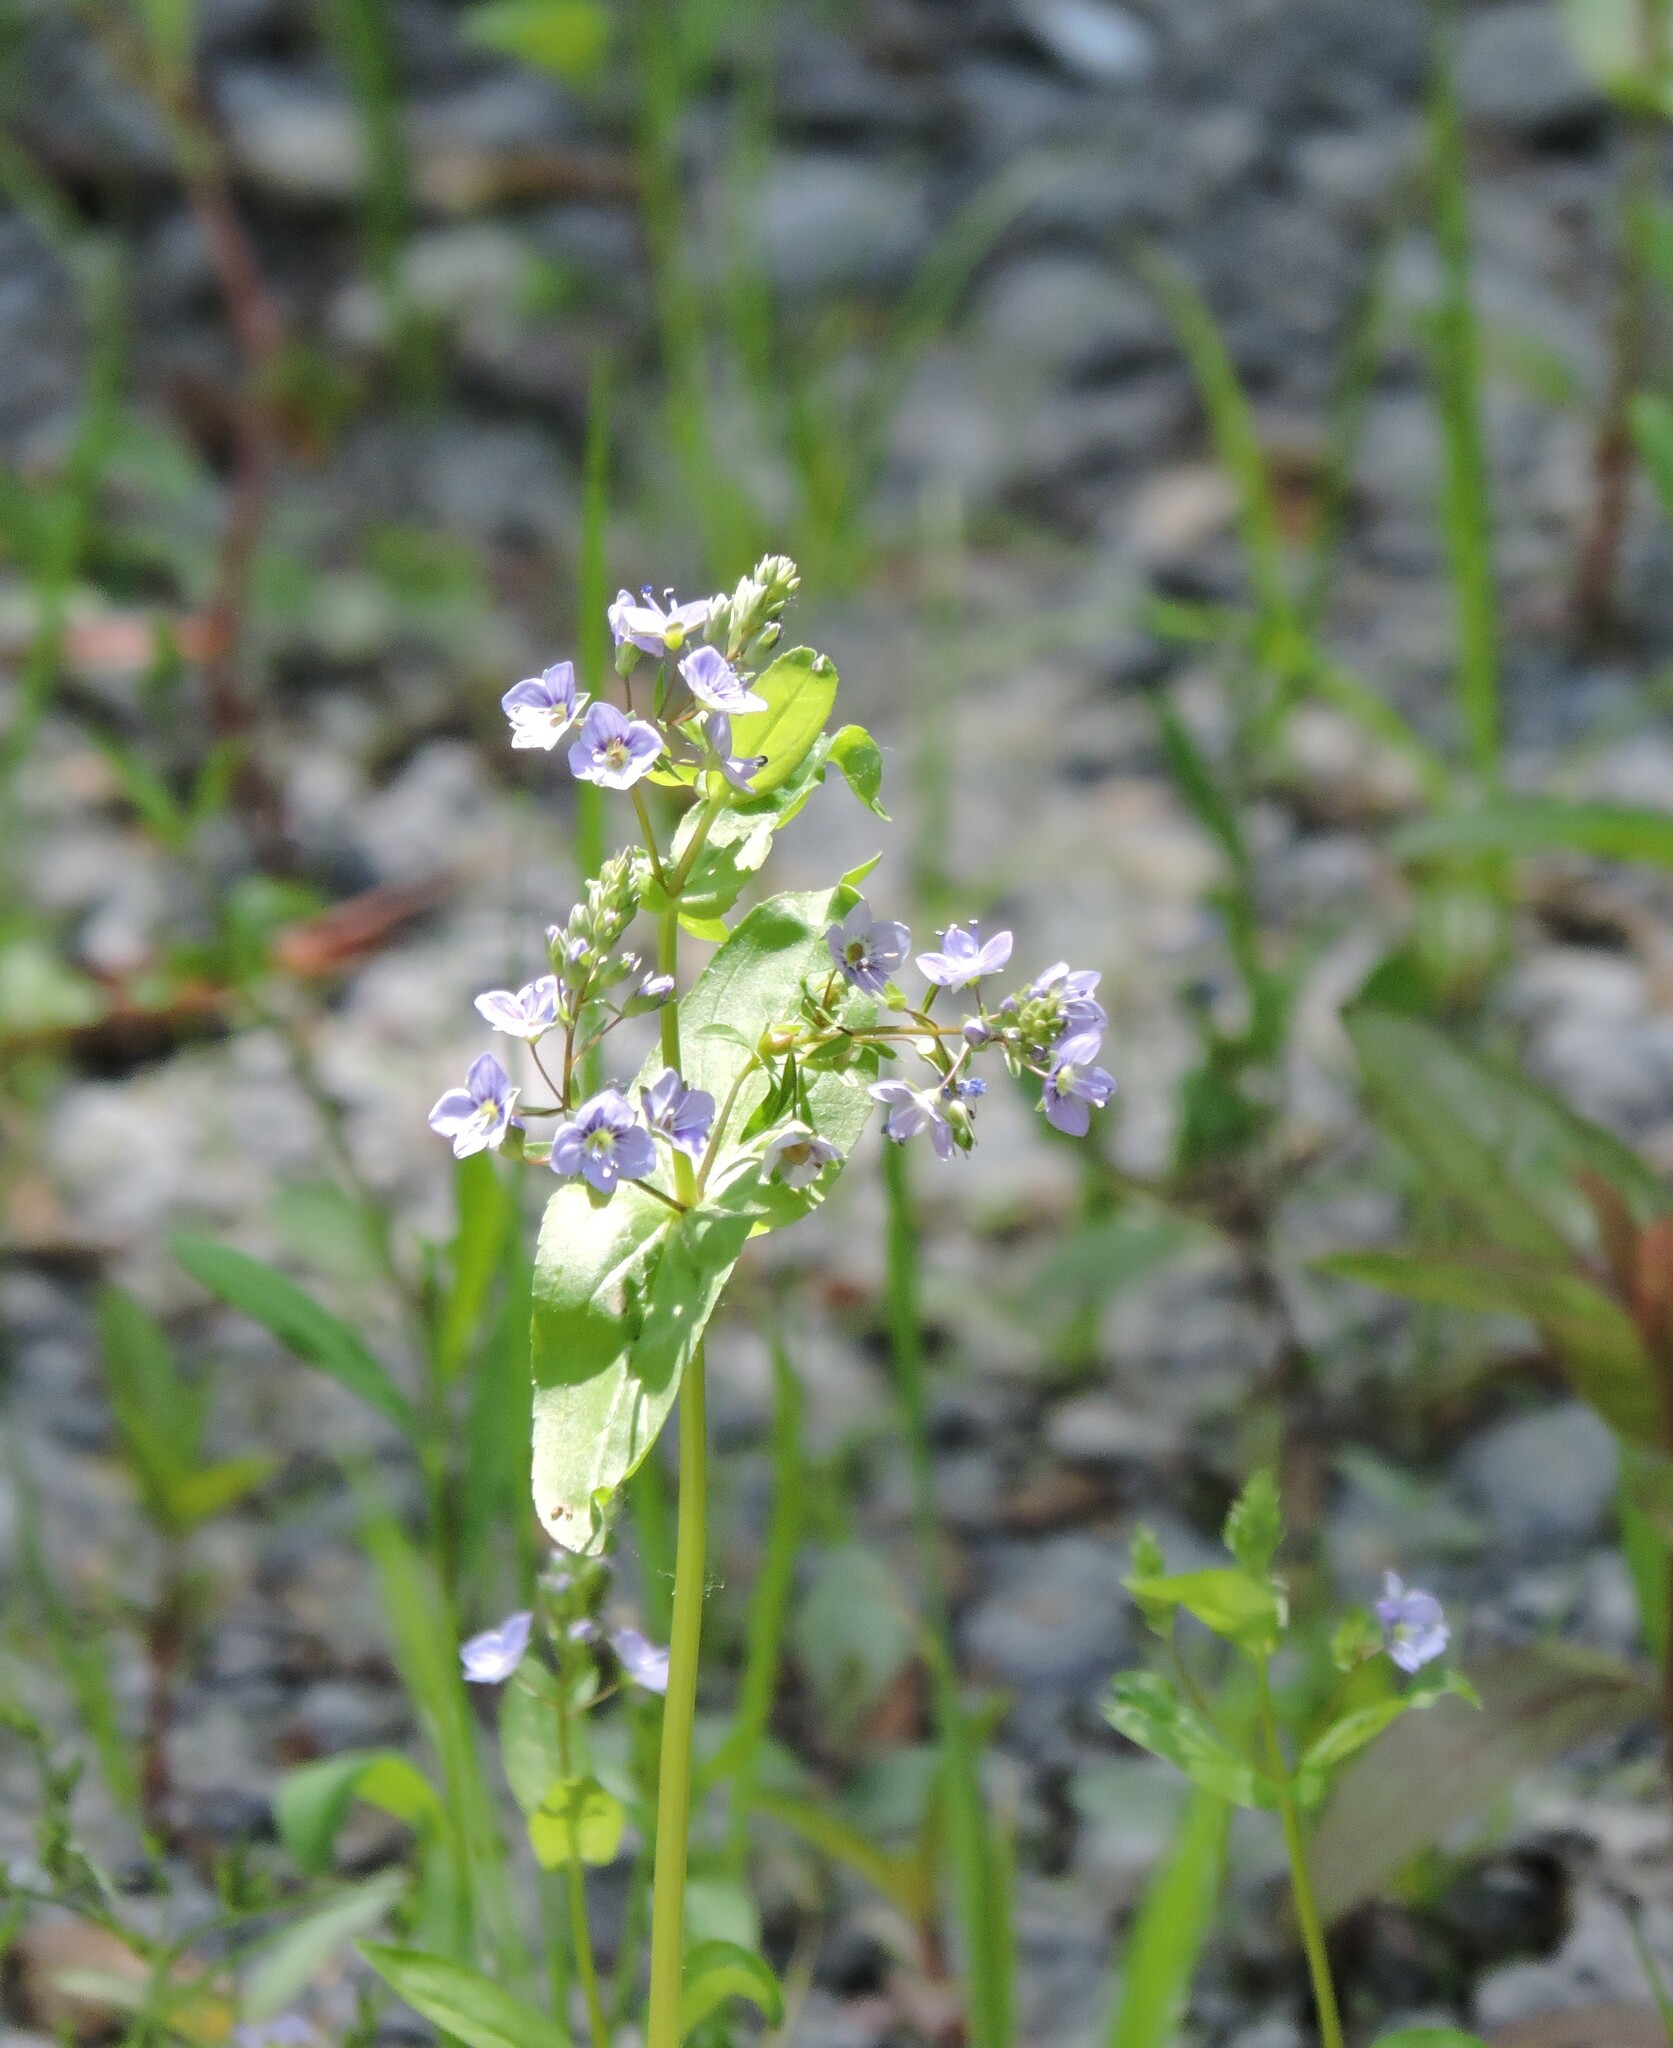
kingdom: Plantae
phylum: Tracheophyta
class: Magnoliopsida
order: Lamiales
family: Plantaginaceae
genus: Veronica
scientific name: Veronica anagallis-aquatica
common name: Water speedwell
